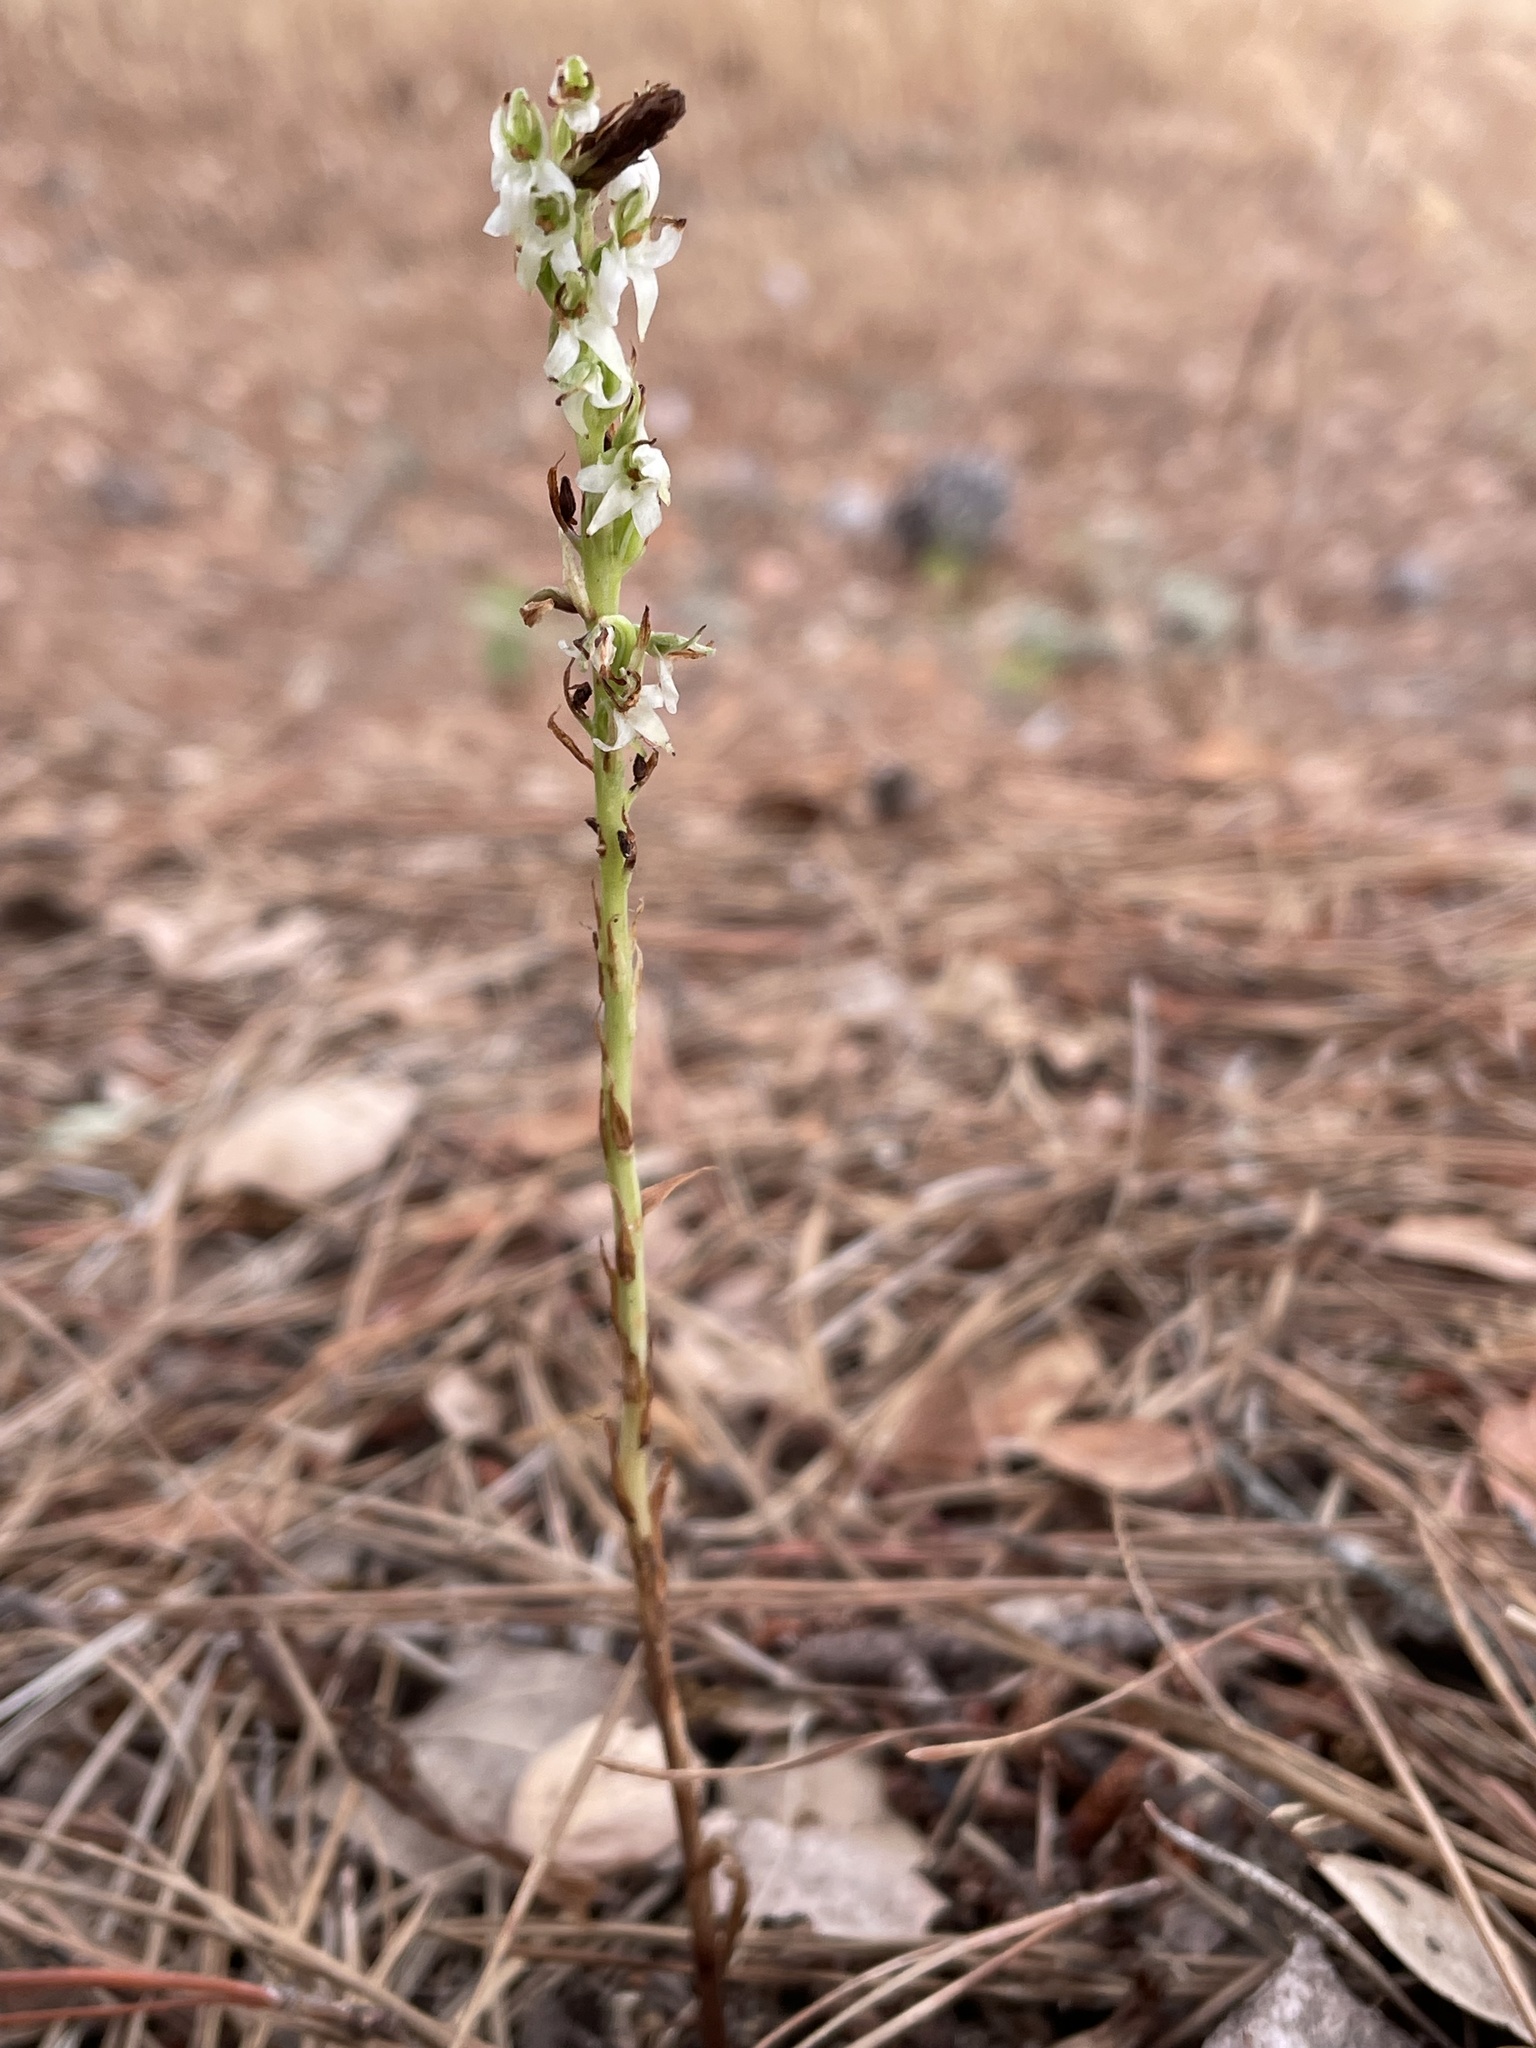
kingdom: Plantae
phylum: Tracheophyta
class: Liliopsida
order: Asparagales
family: Orchidaceae
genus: Platanthera
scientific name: Platanthera yadonii
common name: Yadon’s piperia
